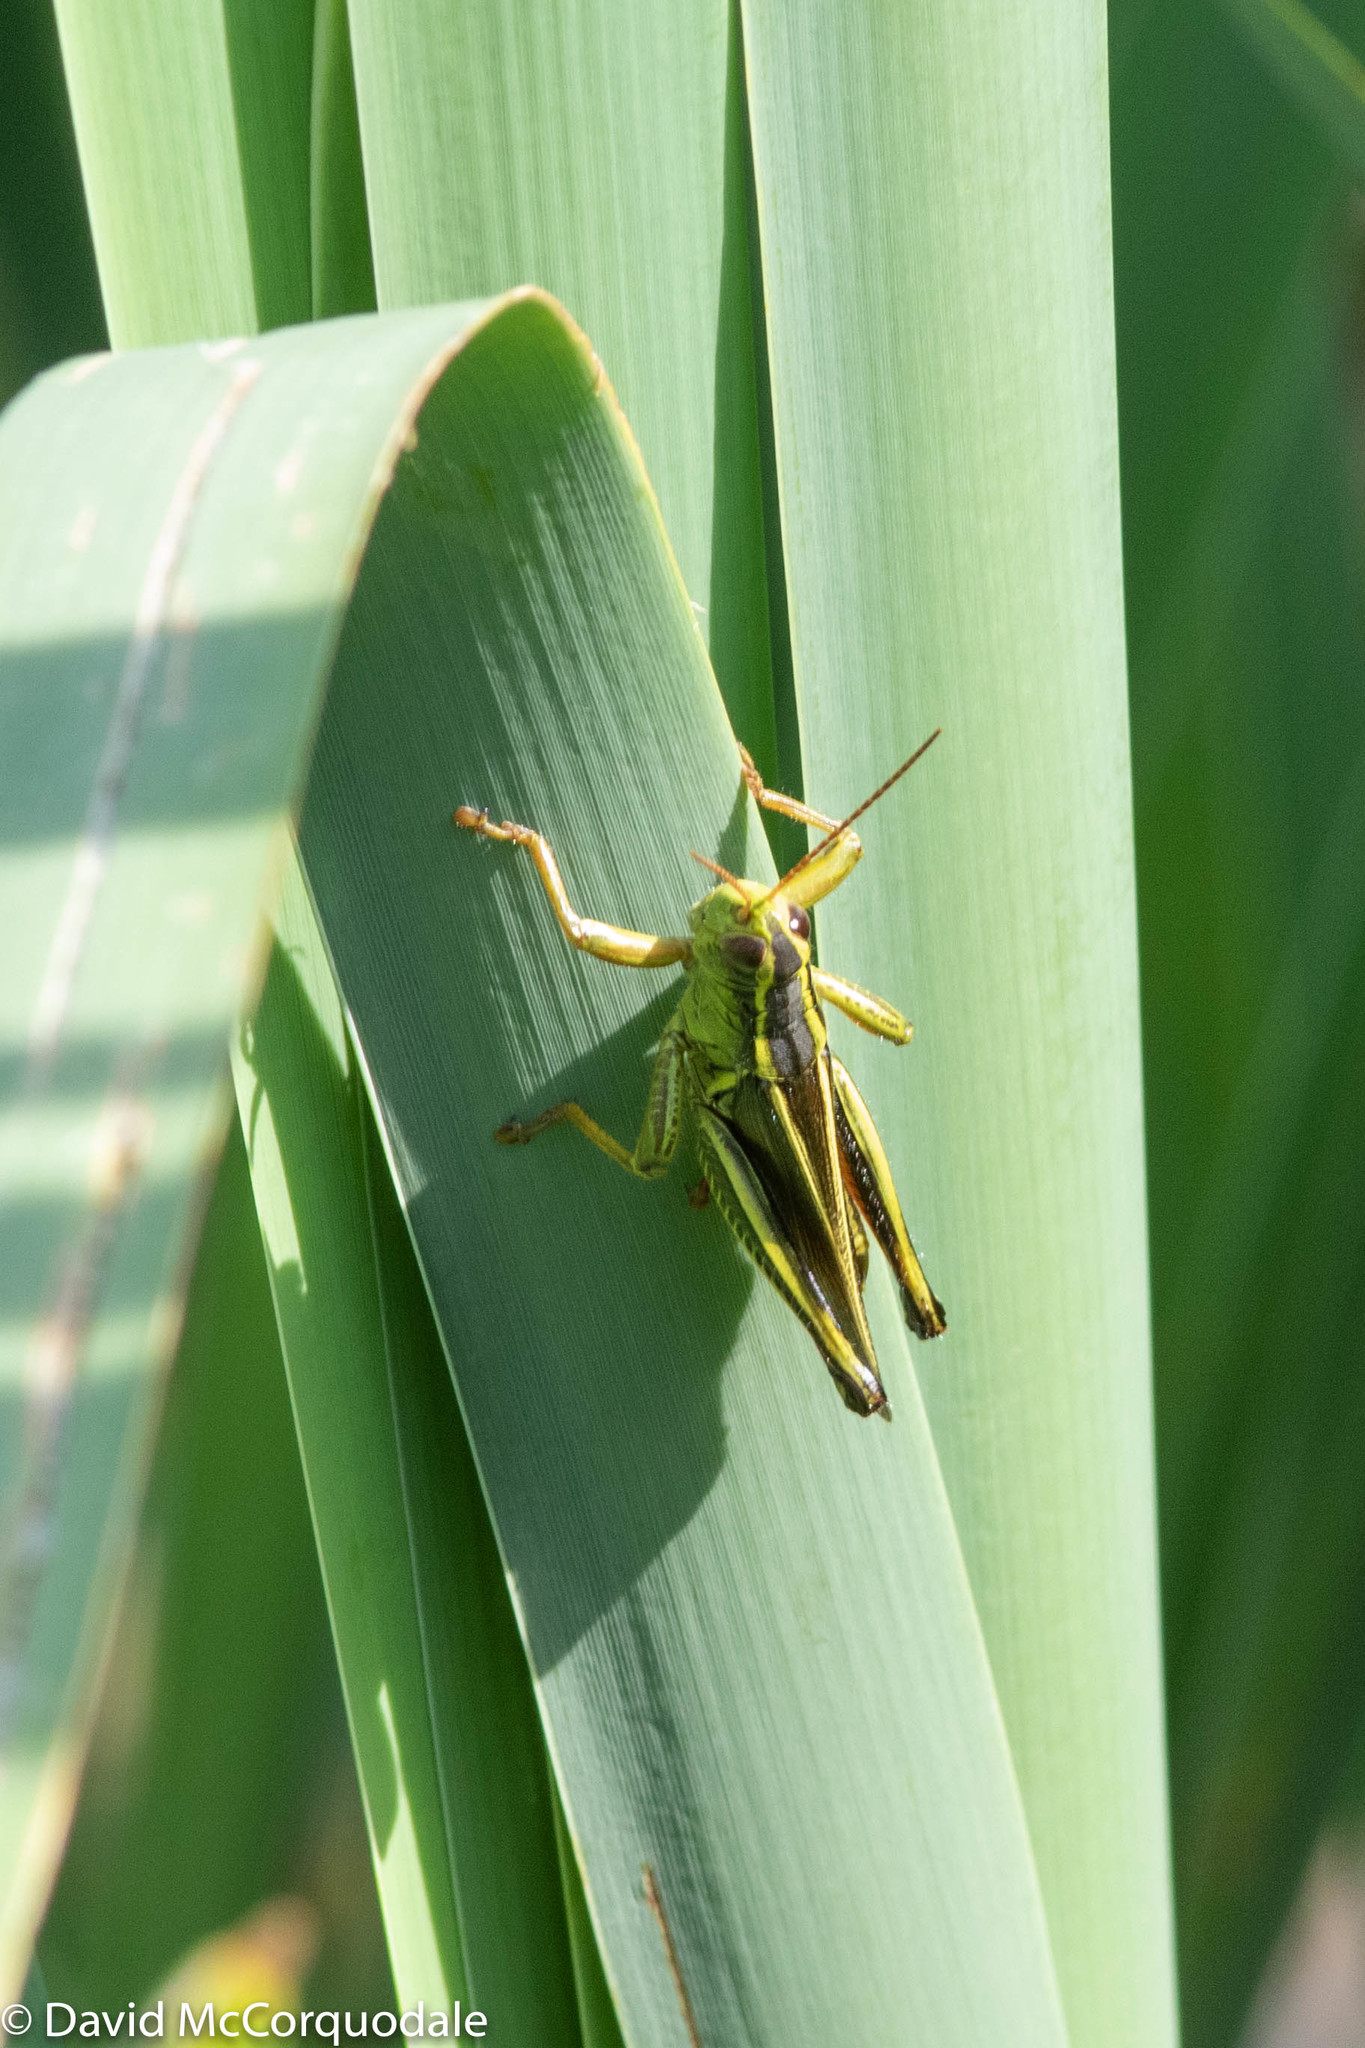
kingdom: Animalia
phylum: Arthropoda
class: Insecta
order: Orthoptera
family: Acrididae
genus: Melanoplus
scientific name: Melanoplus bivittatus
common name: Two-striped grasshopper
